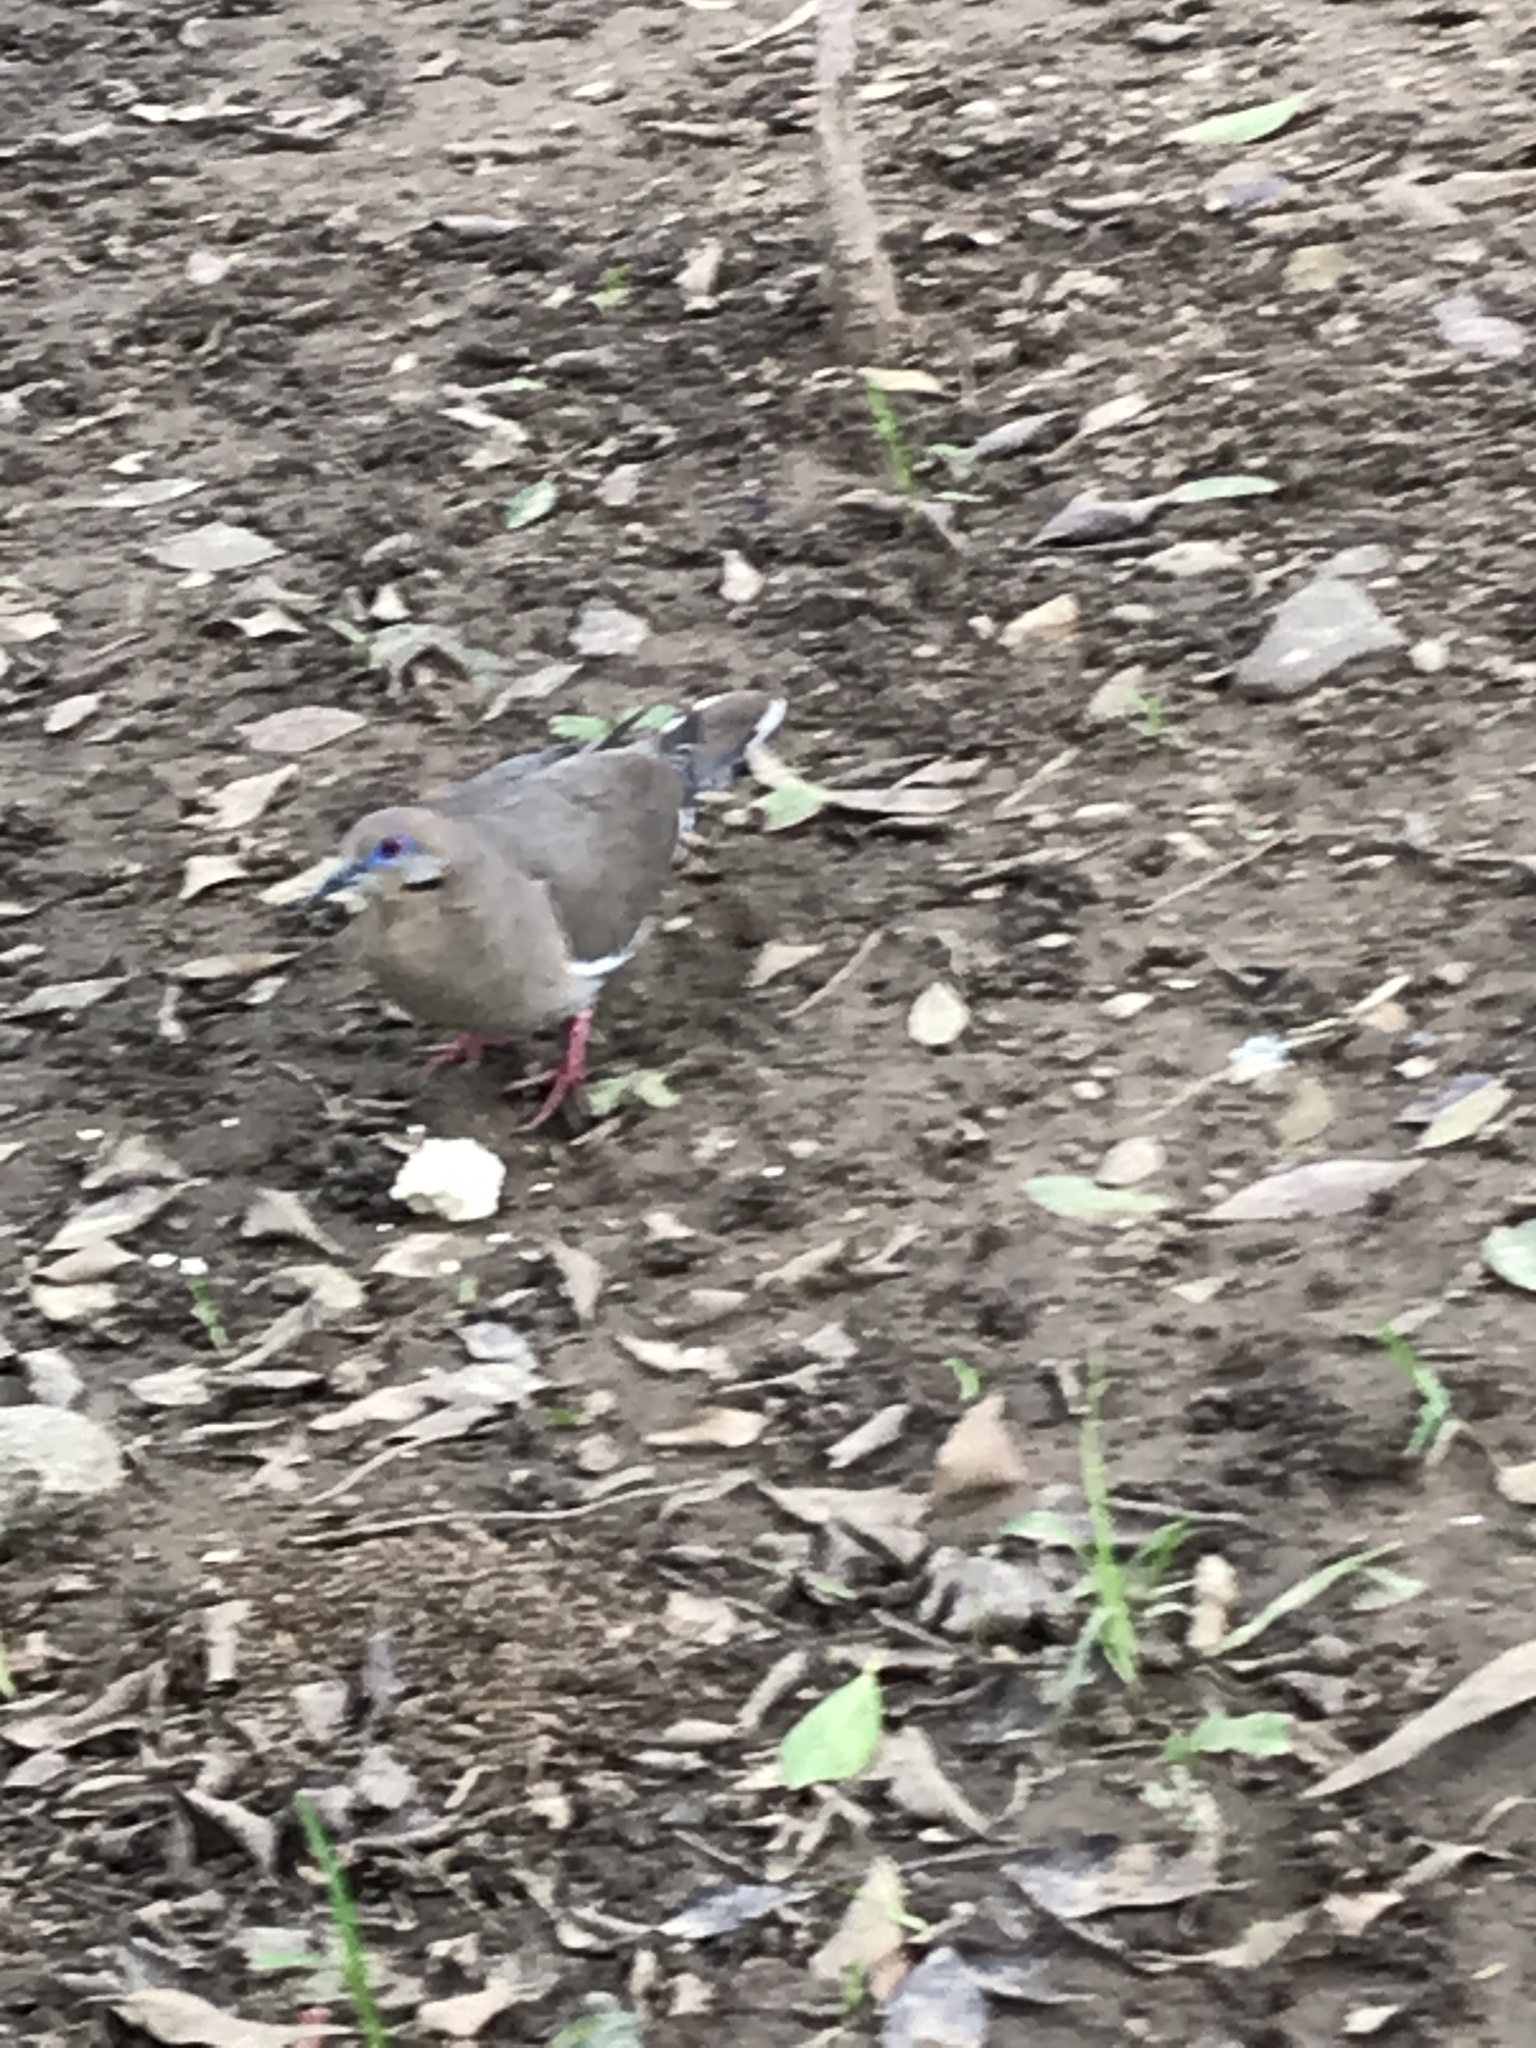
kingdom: Animalia
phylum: Chordata
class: Aves
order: Columbiformes
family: Columbidae
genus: Zenaida
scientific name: Zenaida asiatica
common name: White-winged dove
